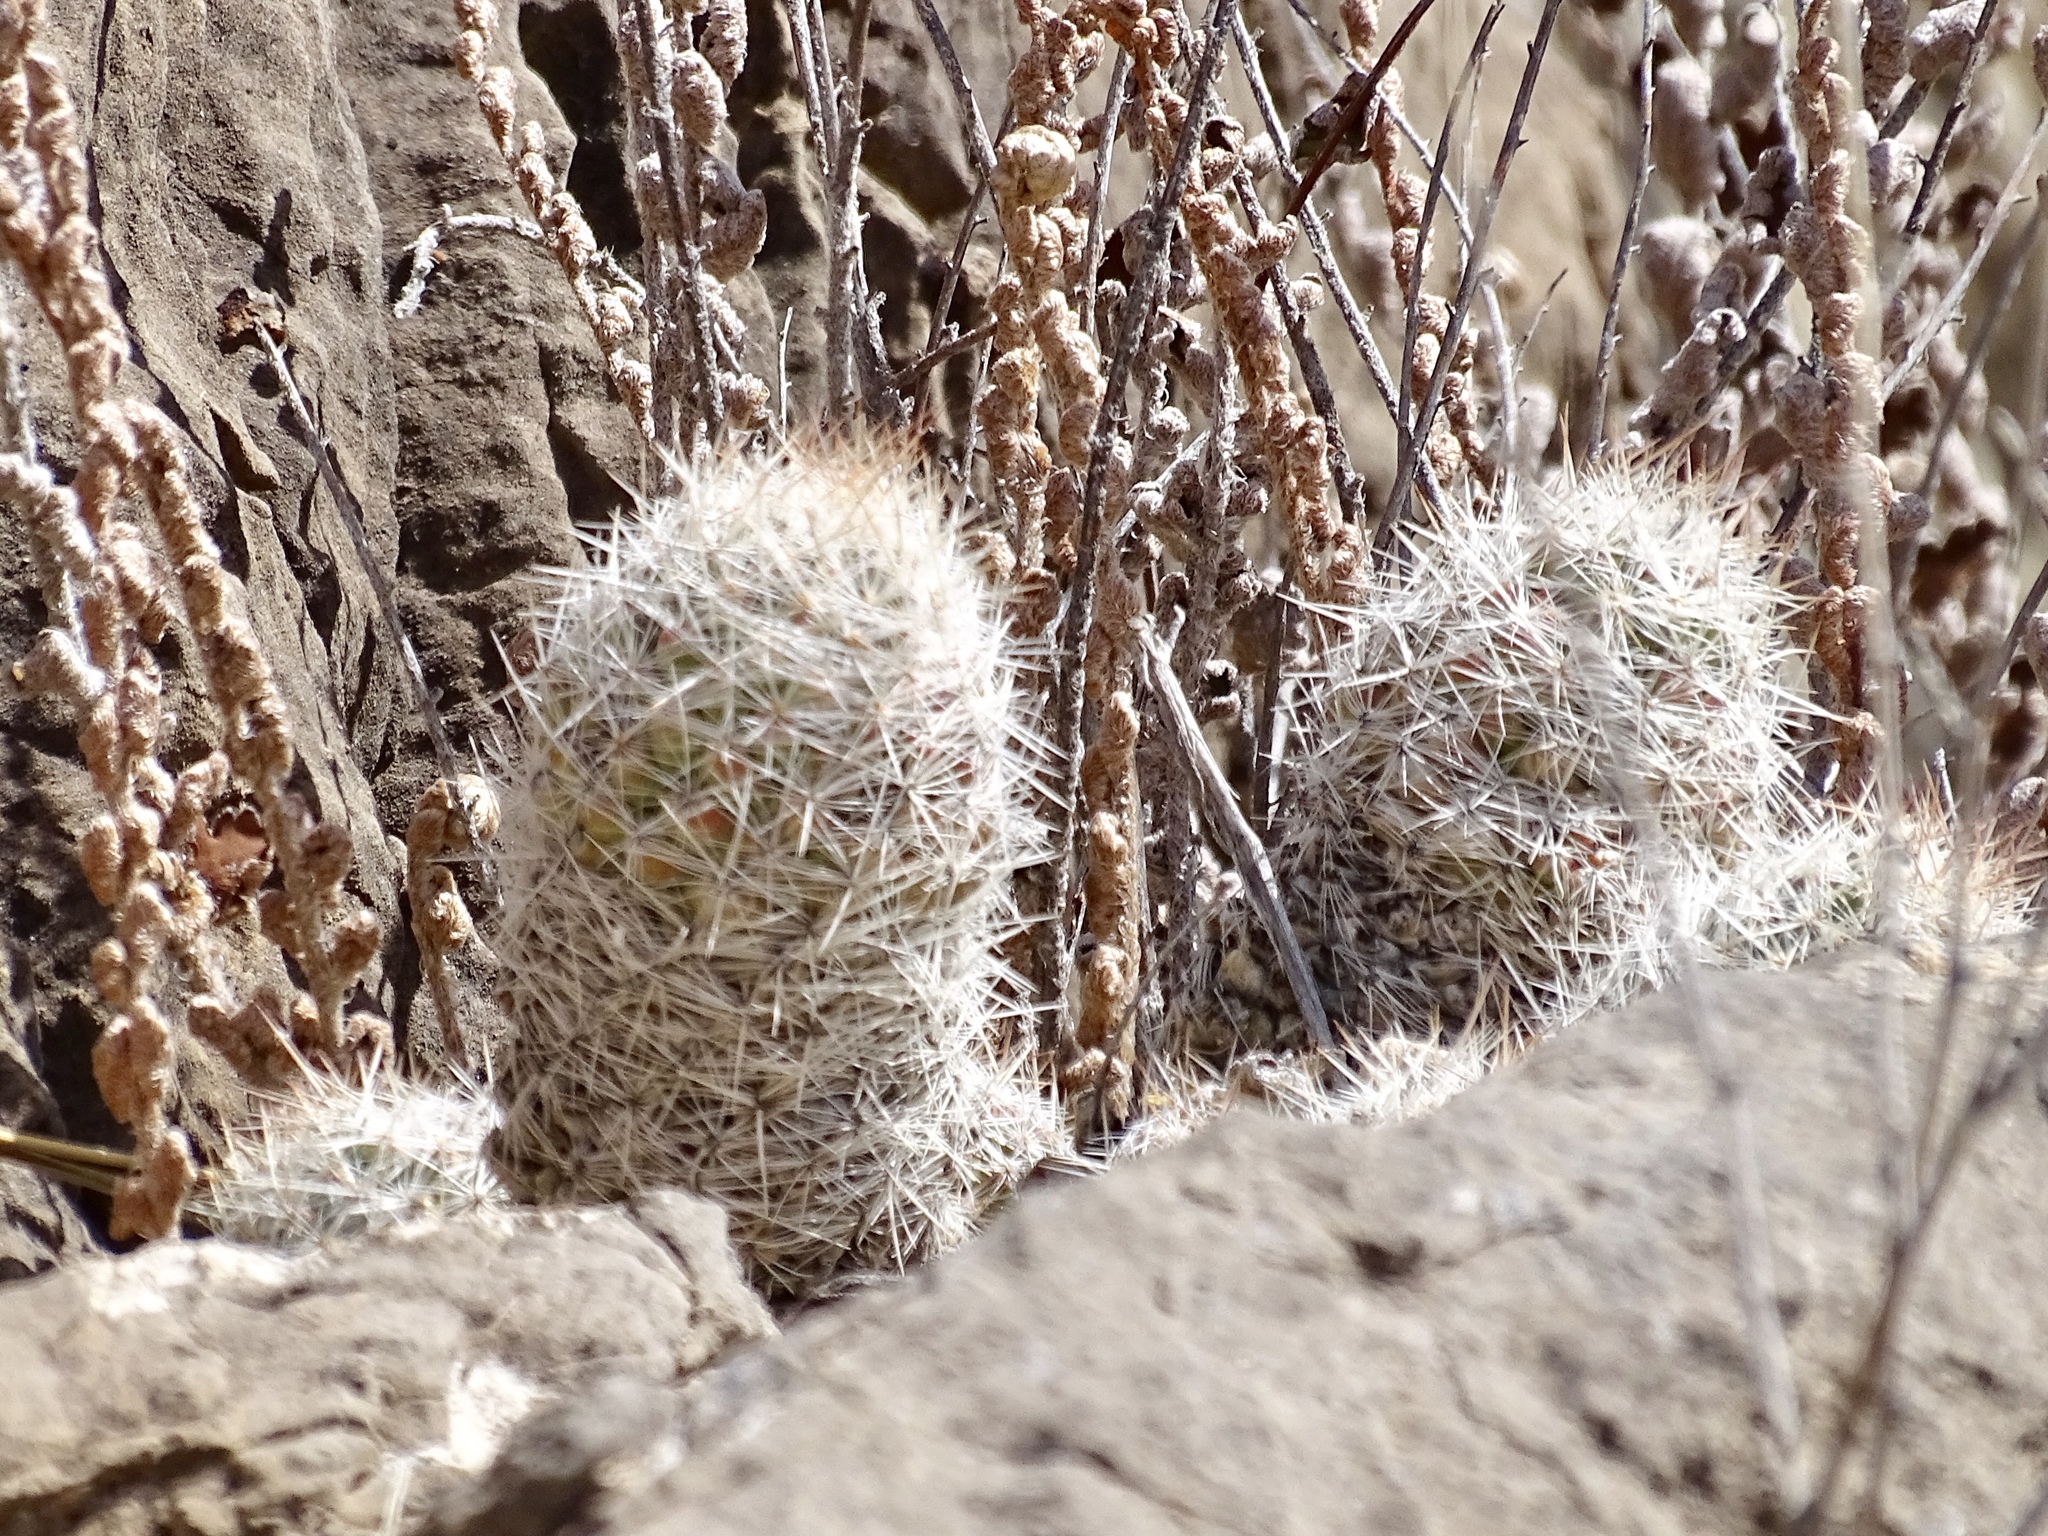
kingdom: Plantae
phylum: Tracheophyta
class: Magnoliopsida
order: Caryophyllales
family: Cactaceae
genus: Pelecyphora
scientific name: Pelecyphora tuberculosa
